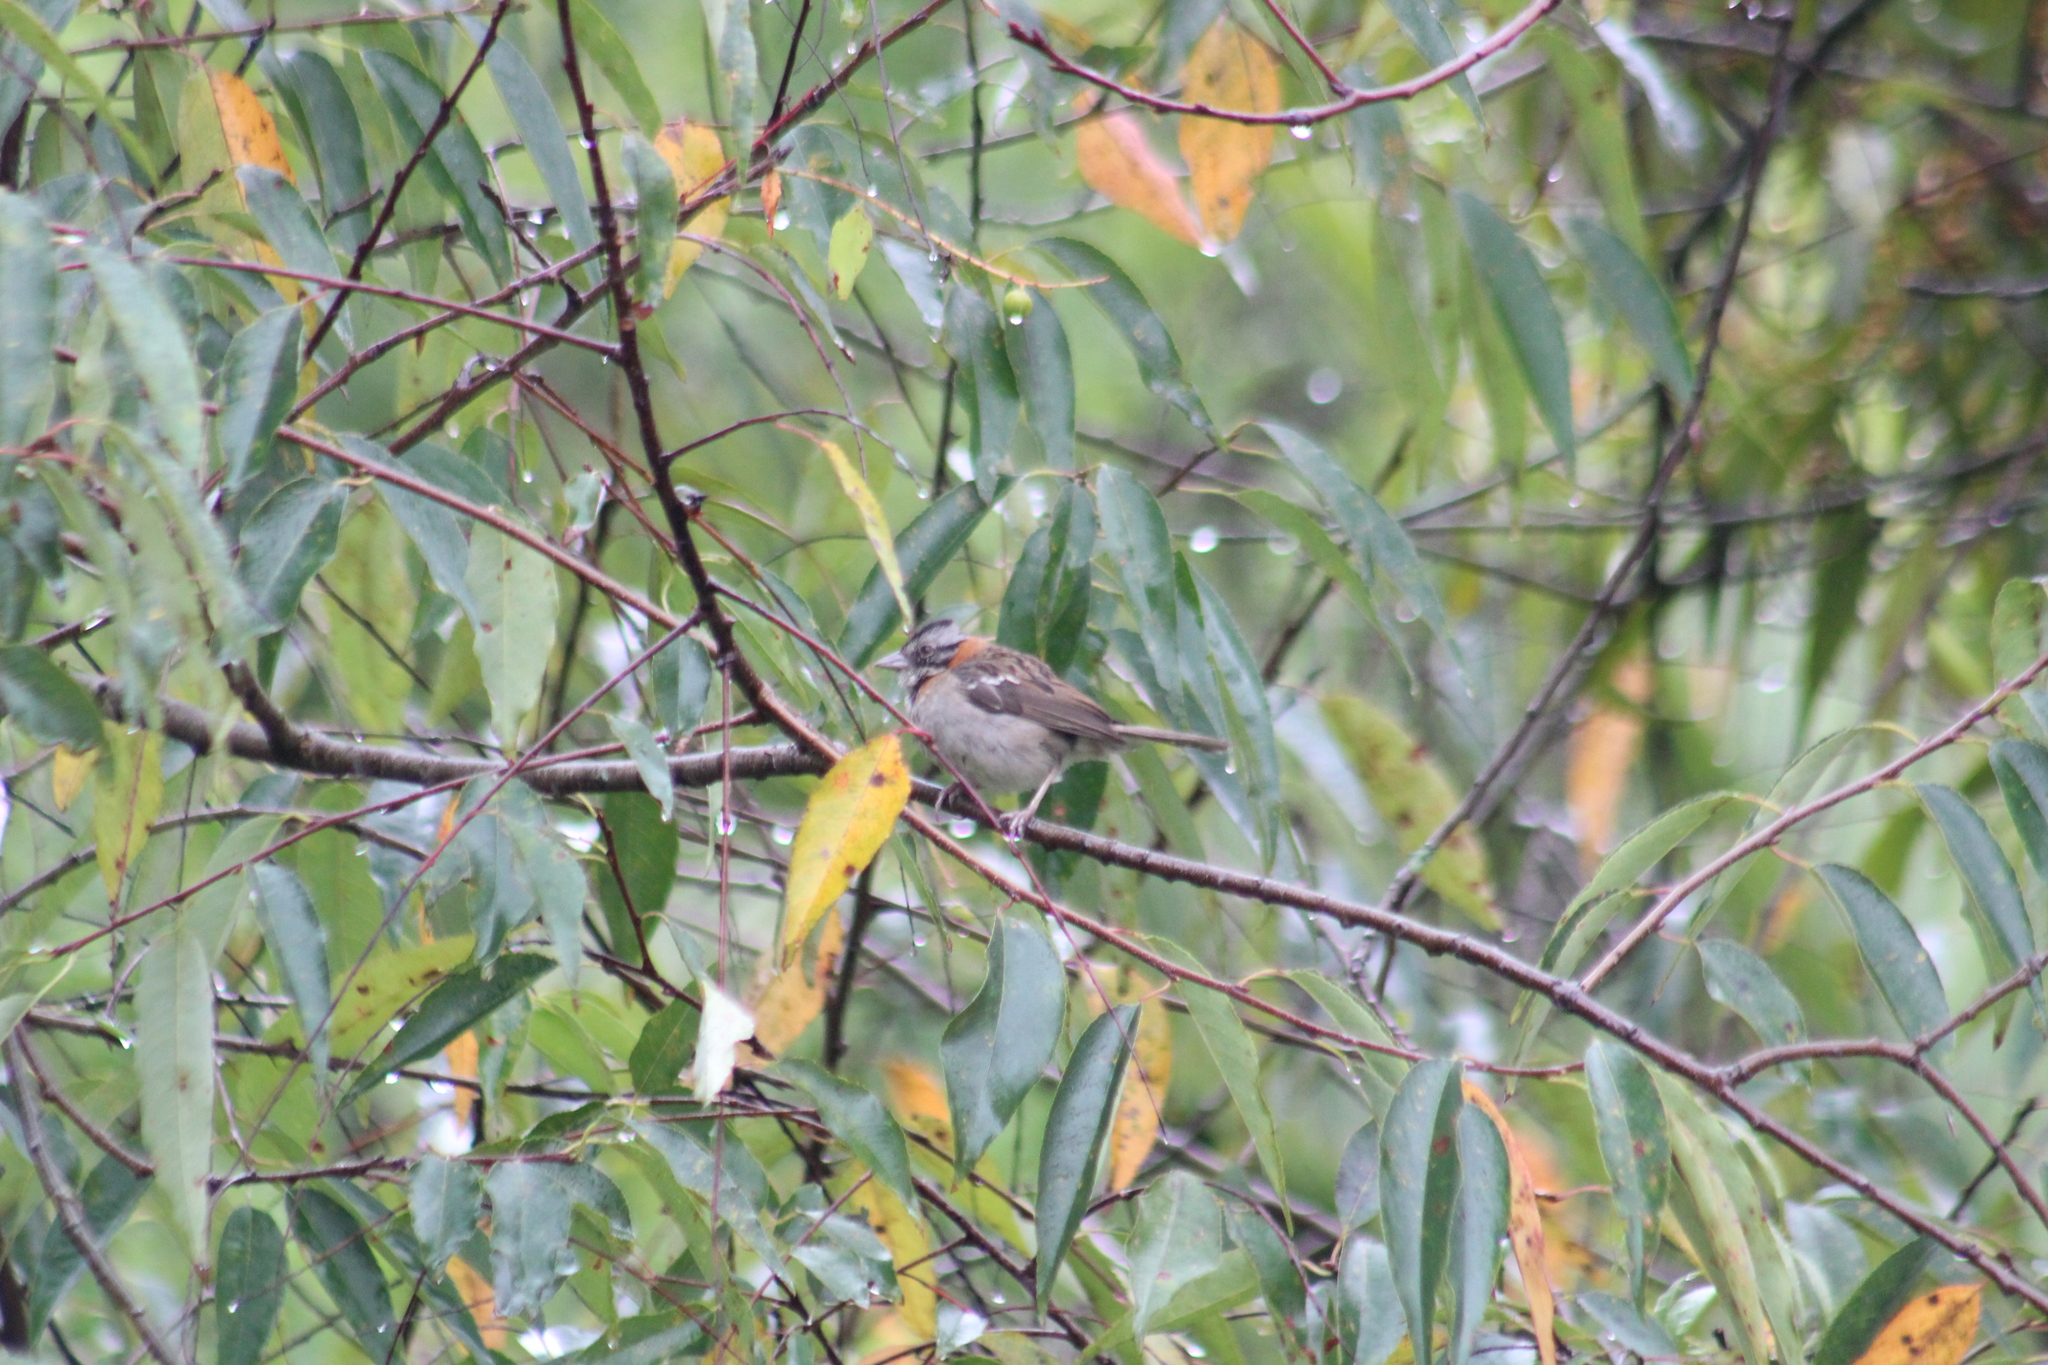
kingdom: Animalia
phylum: Chordata
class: Aves
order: Passeriformes
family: Passerellidae
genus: Zonotrichia
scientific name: Zonotrichia capensis
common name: Rufous-collared sparrow
